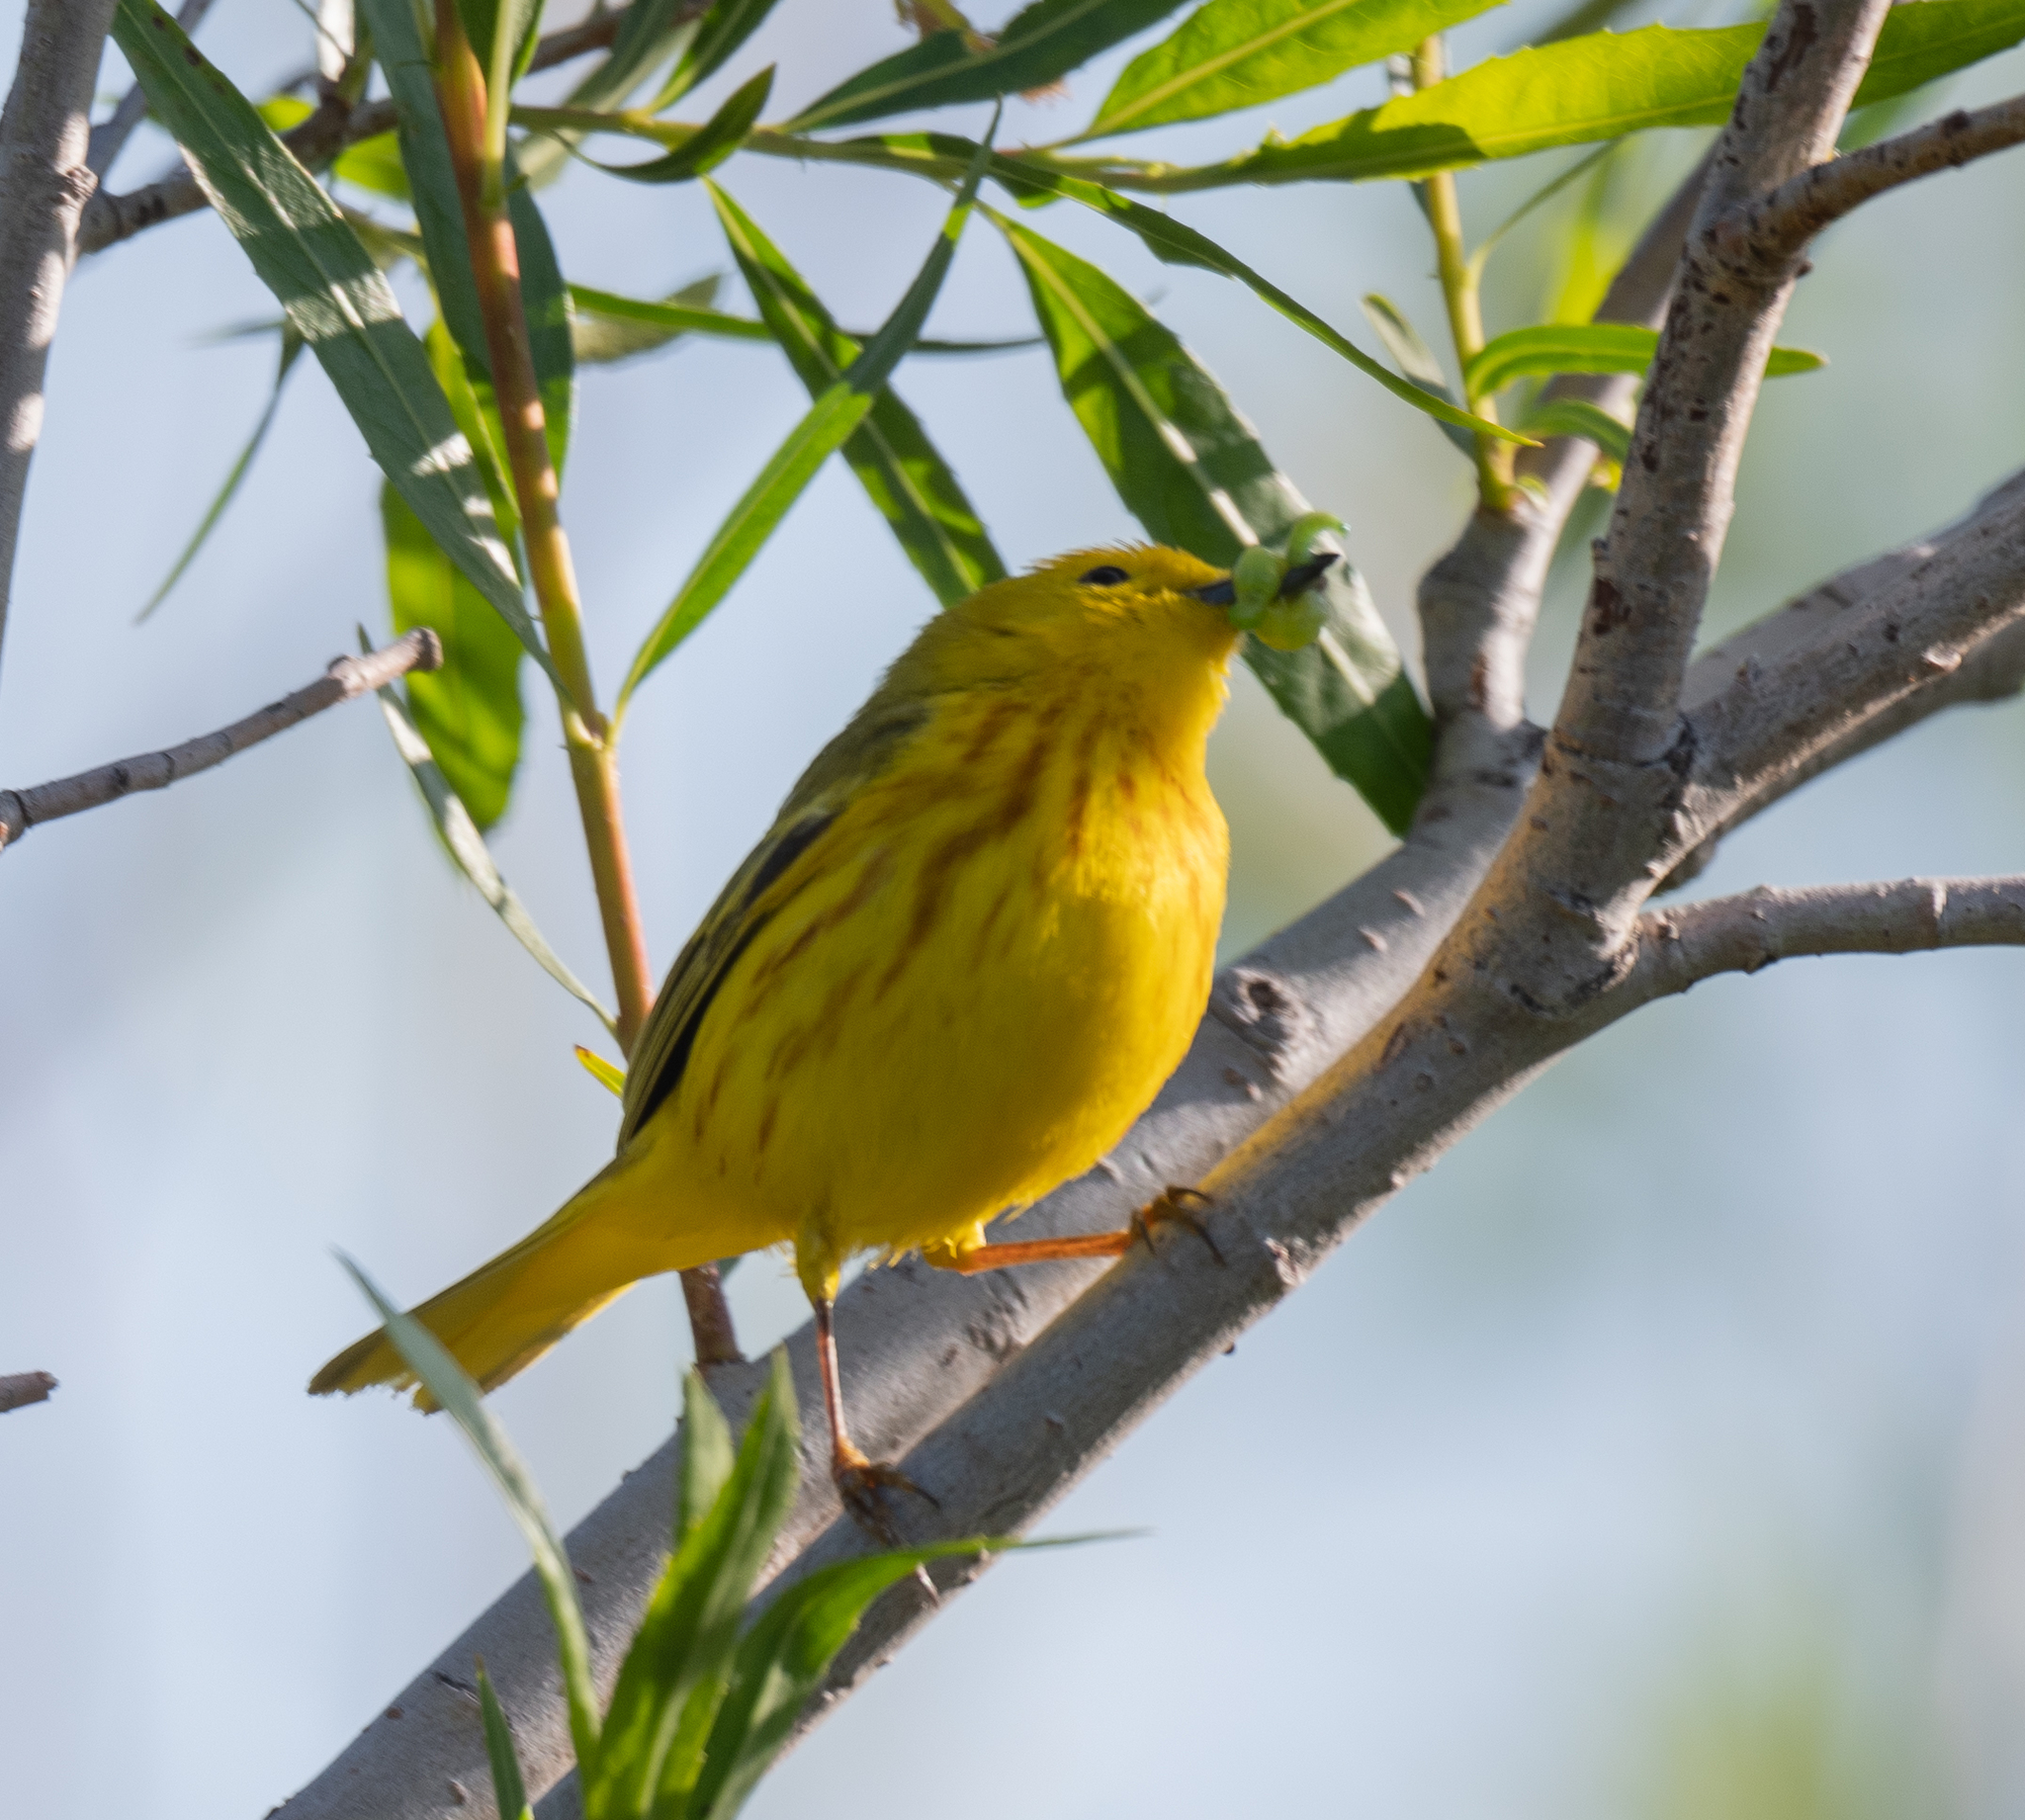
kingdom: Animalia
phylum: Chordata
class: Aves
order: Passeriformes
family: Parulidae
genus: Setophaga
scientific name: Setophaga petechia
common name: Yellow warbler
